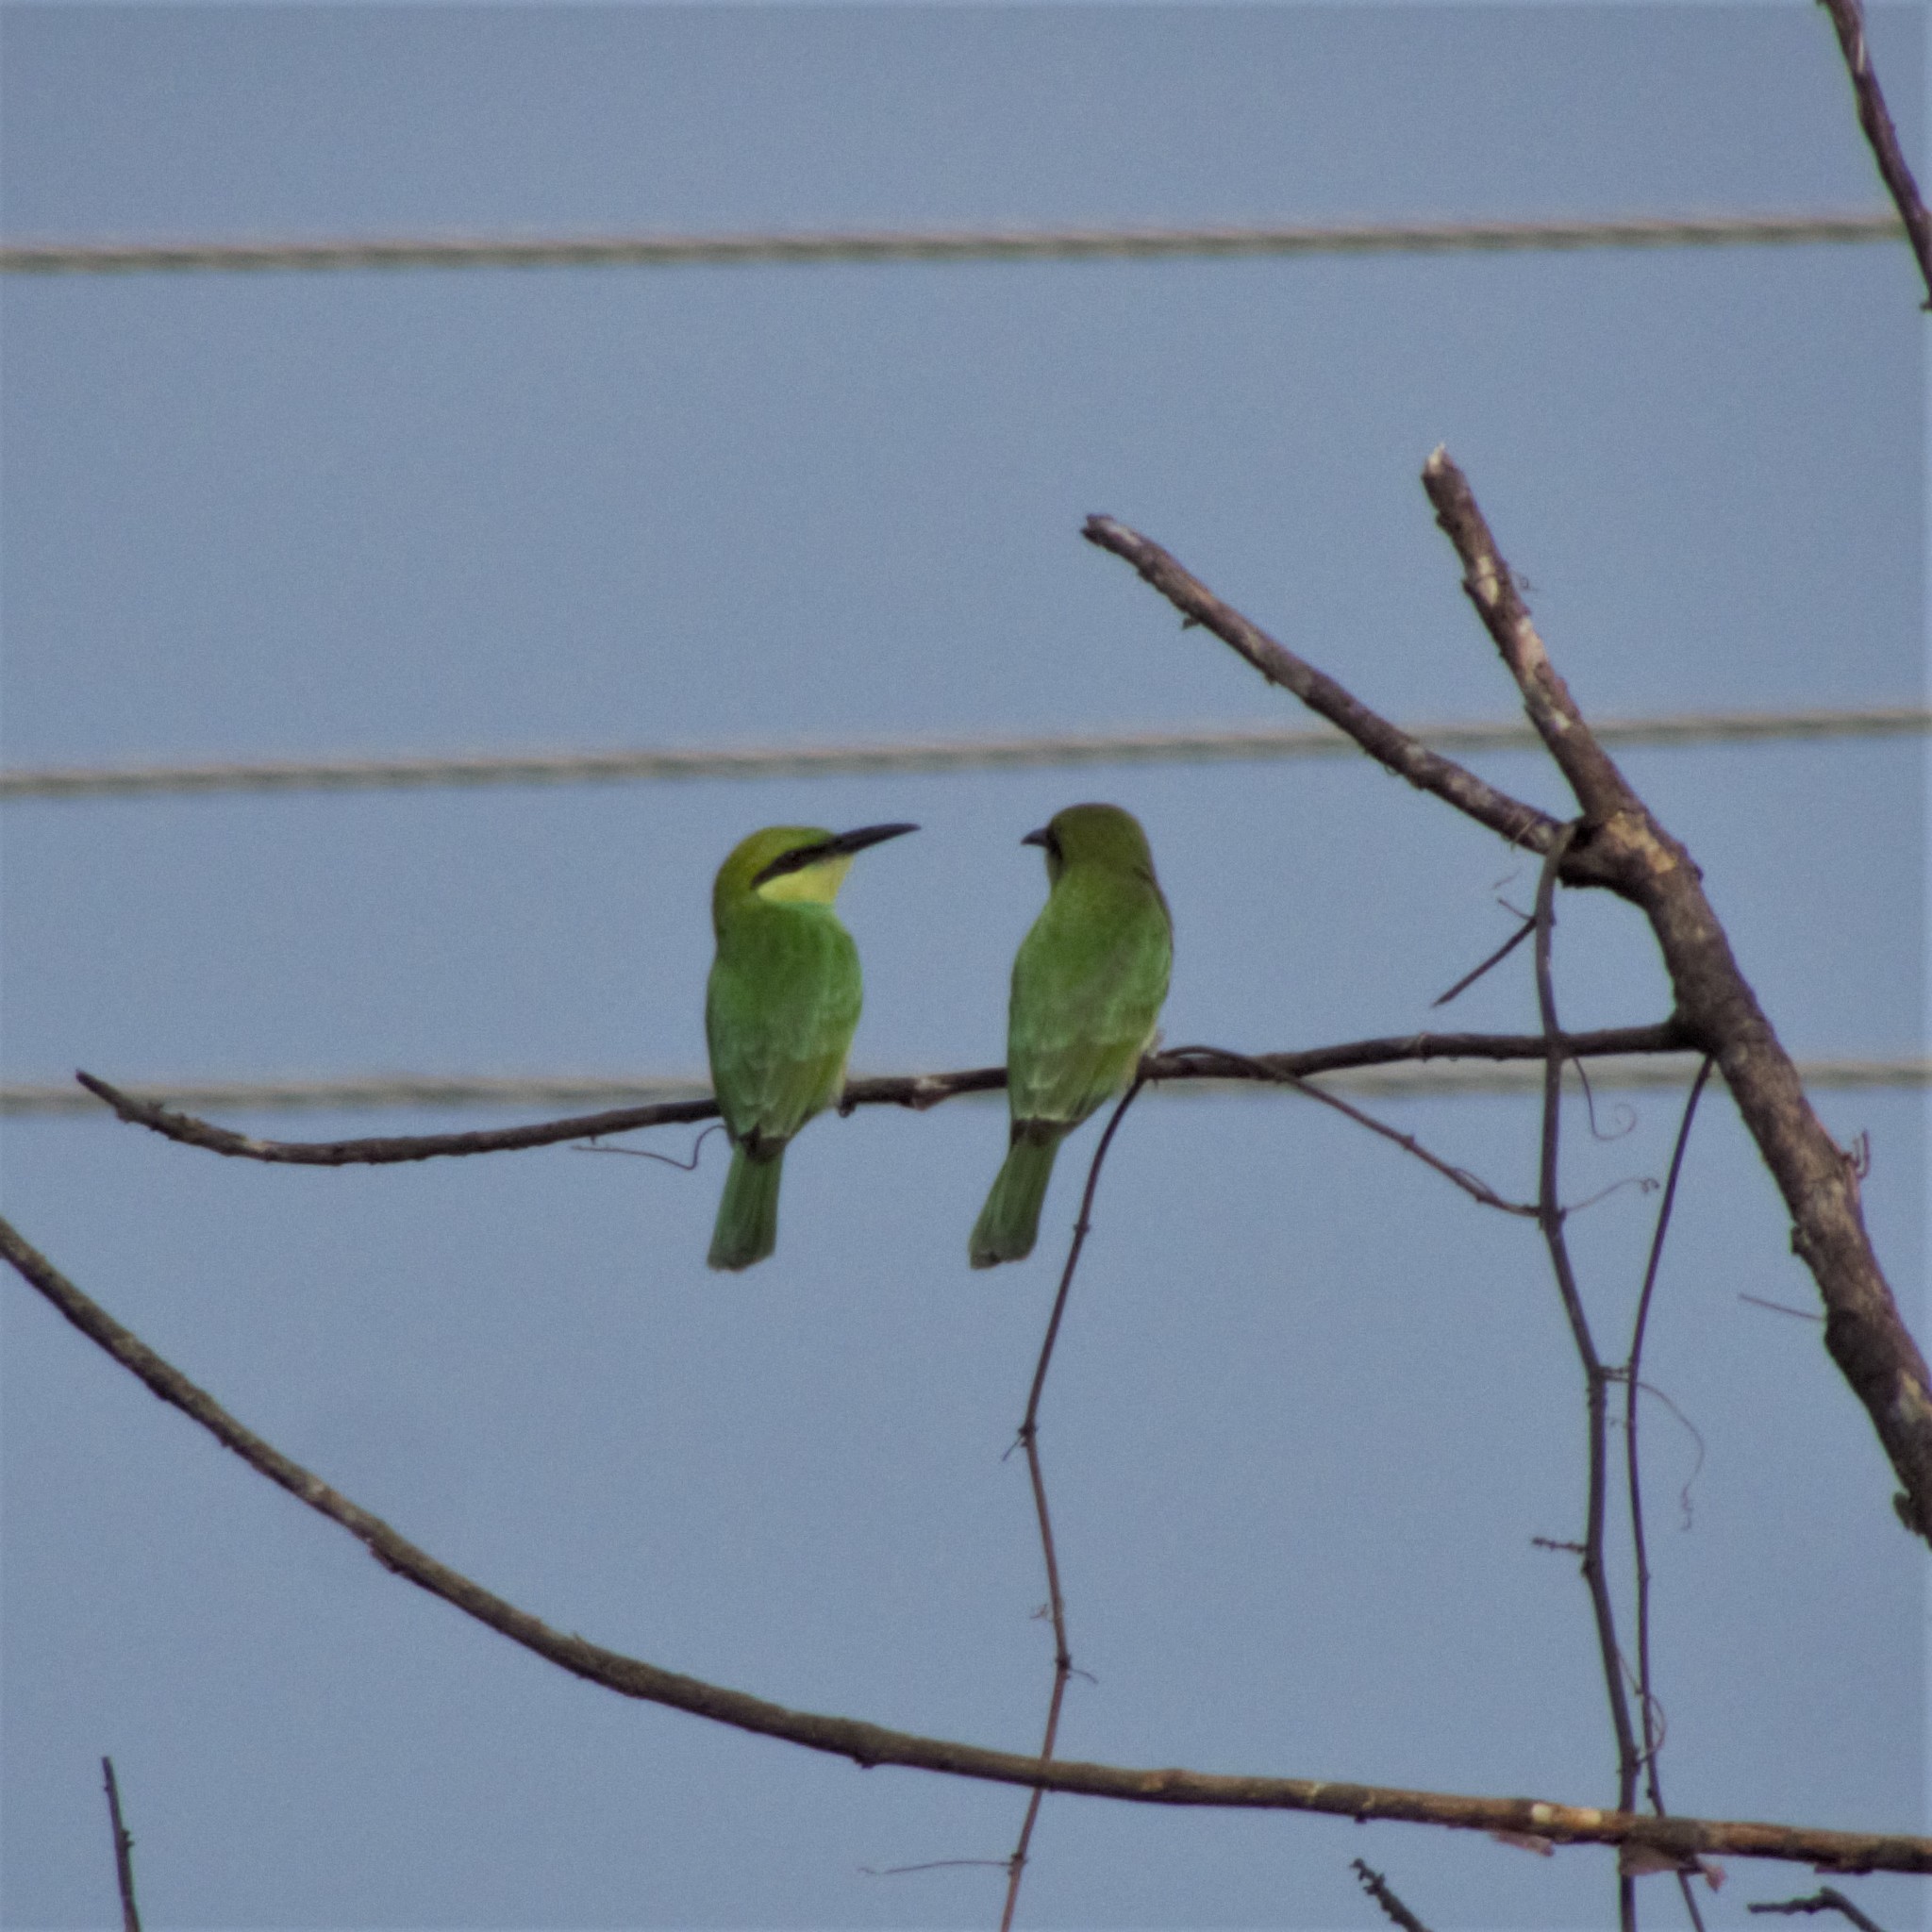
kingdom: Animalia
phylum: Chordata
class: Aves
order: Coraciiformes
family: Meropidae
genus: Merops
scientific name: Merops orientalis
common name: Green bee-eater
